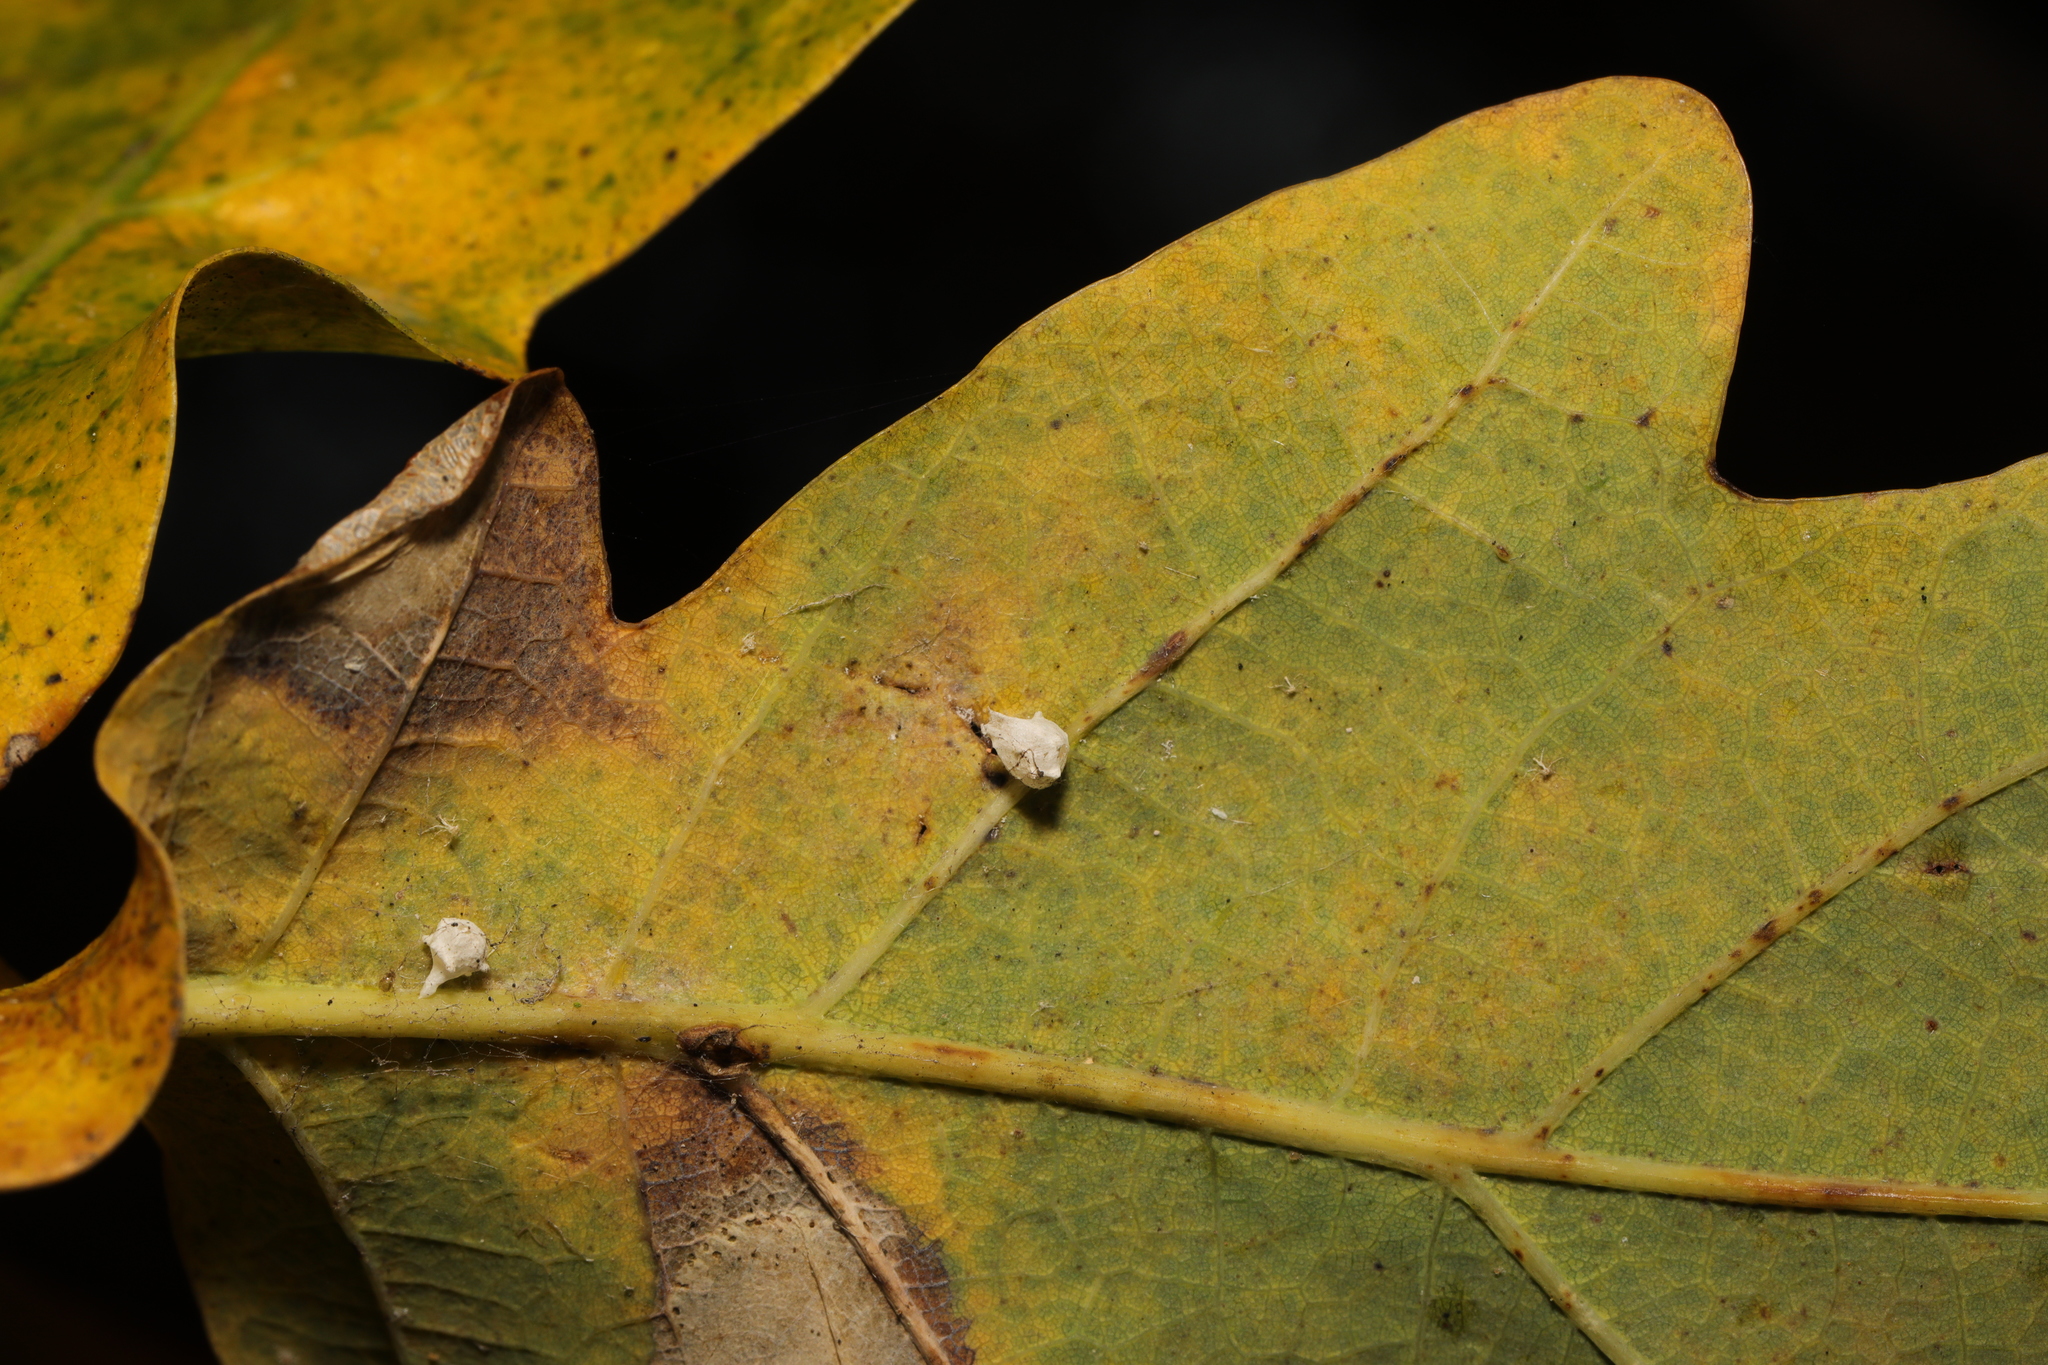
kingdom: Animalia
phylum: Arthropoda
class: Arachnida
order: Araneae
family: Theridiidae
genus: Paidiscura
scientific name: Paidiscura pallens
